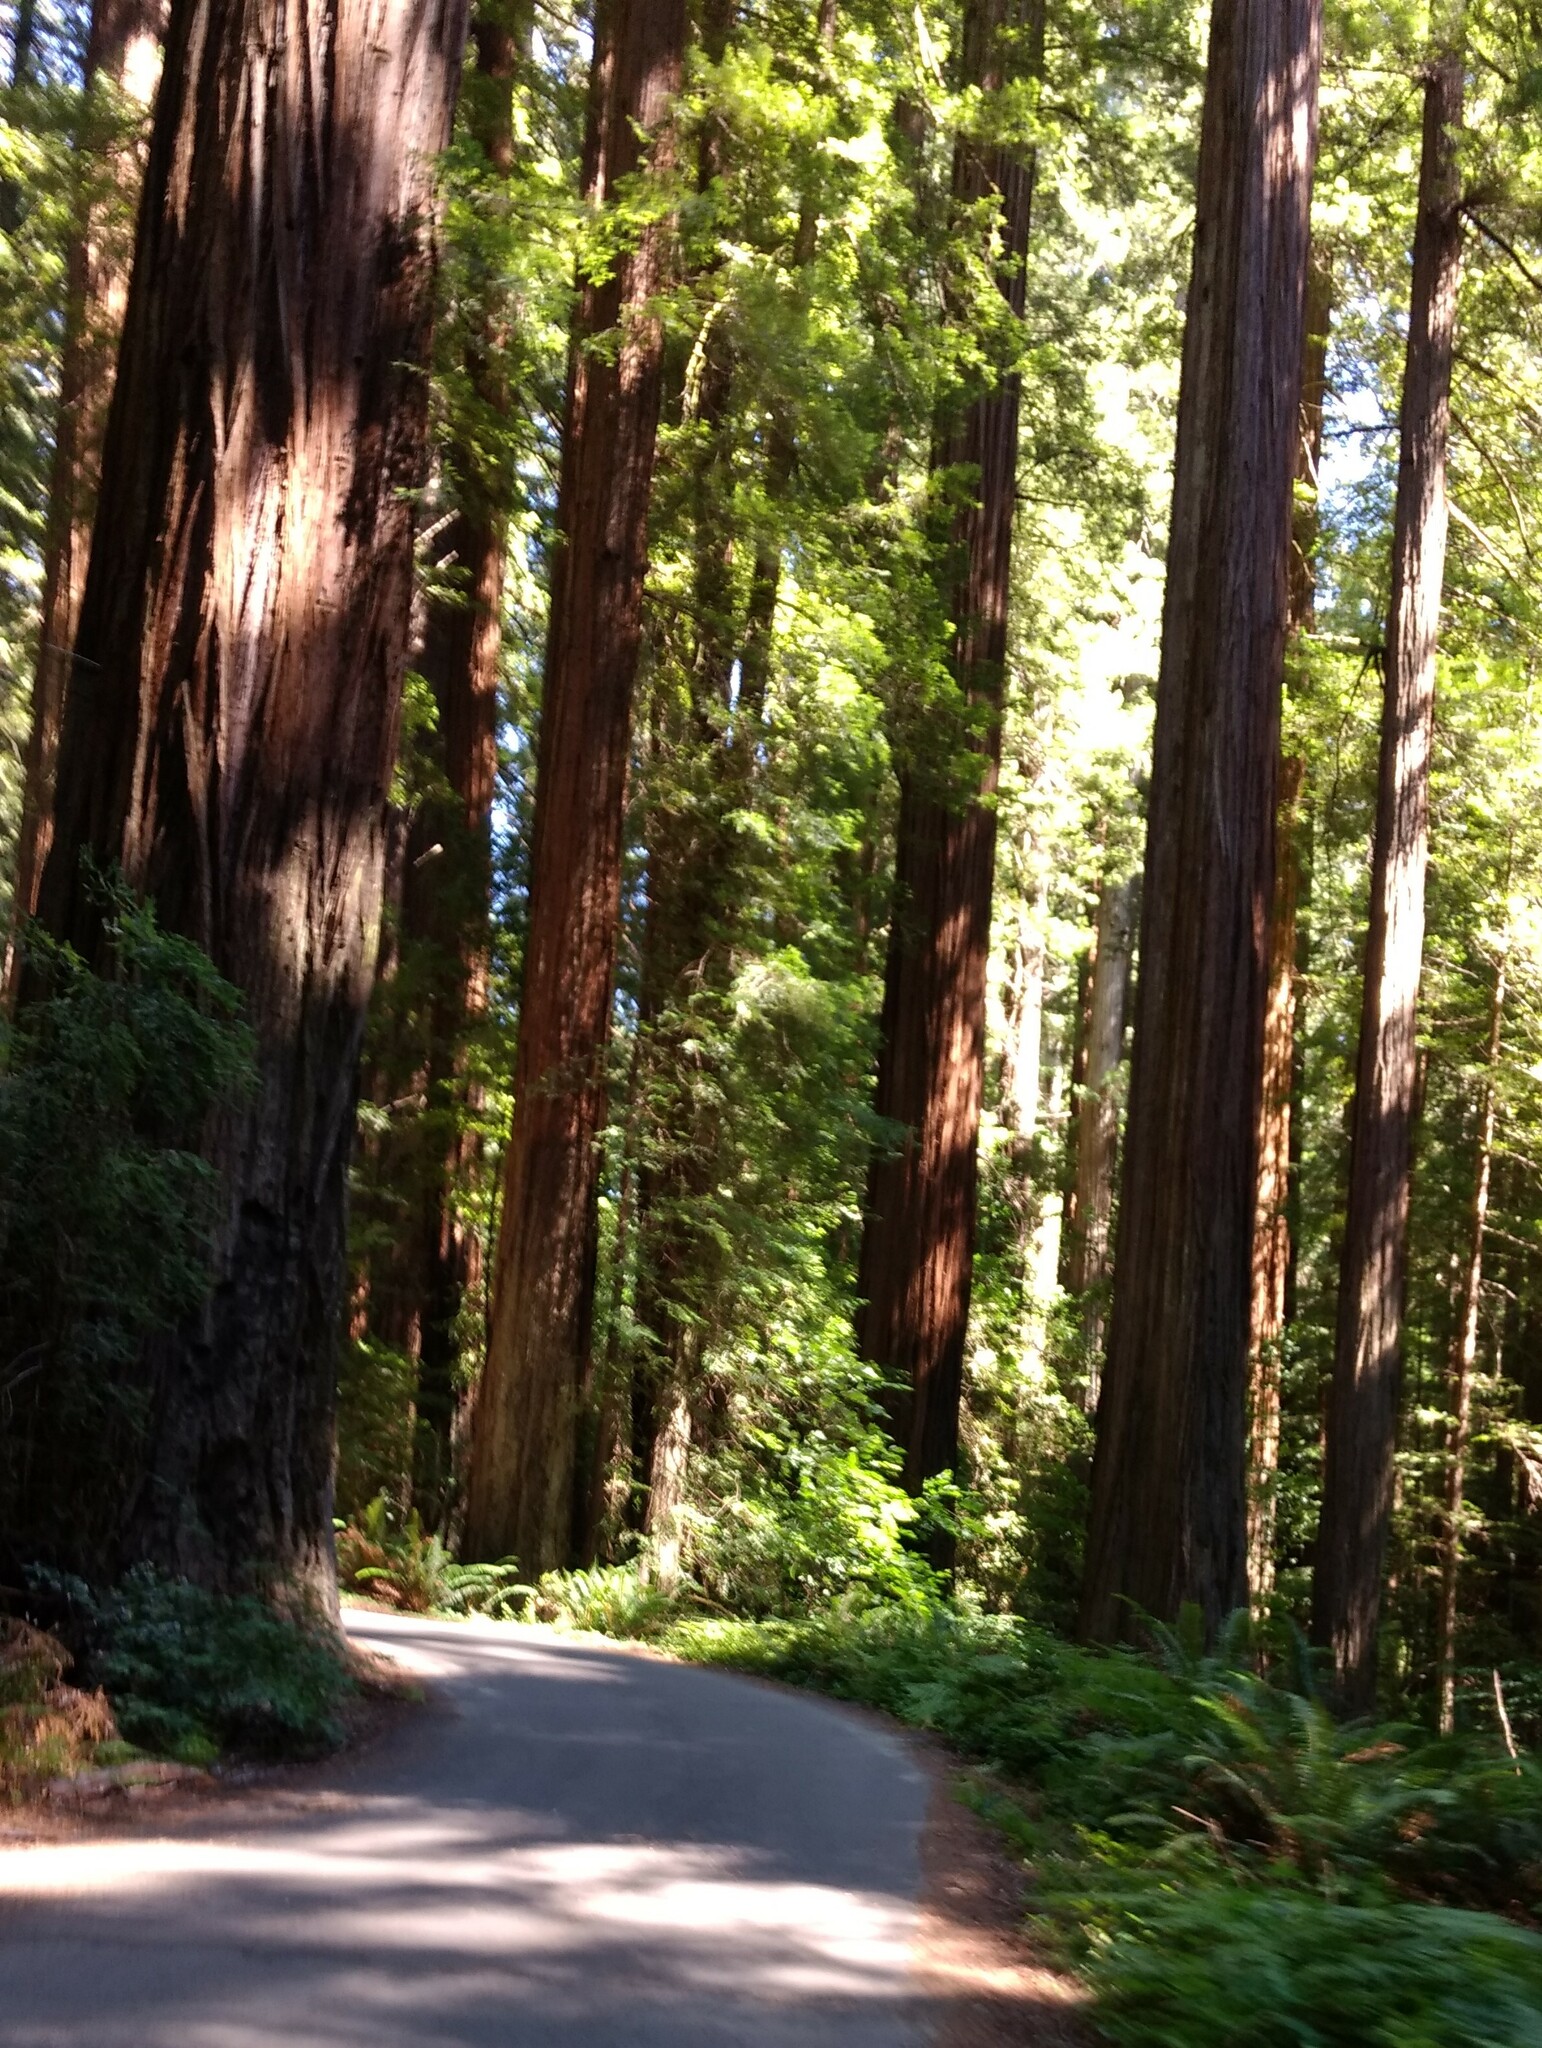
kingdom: Plantae
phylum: Tracheophyta
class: Pinopsida
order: Pinales
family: Cupressaceae
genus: Sequoia
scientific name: Sequoia sempervirens
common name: Coast redwood
